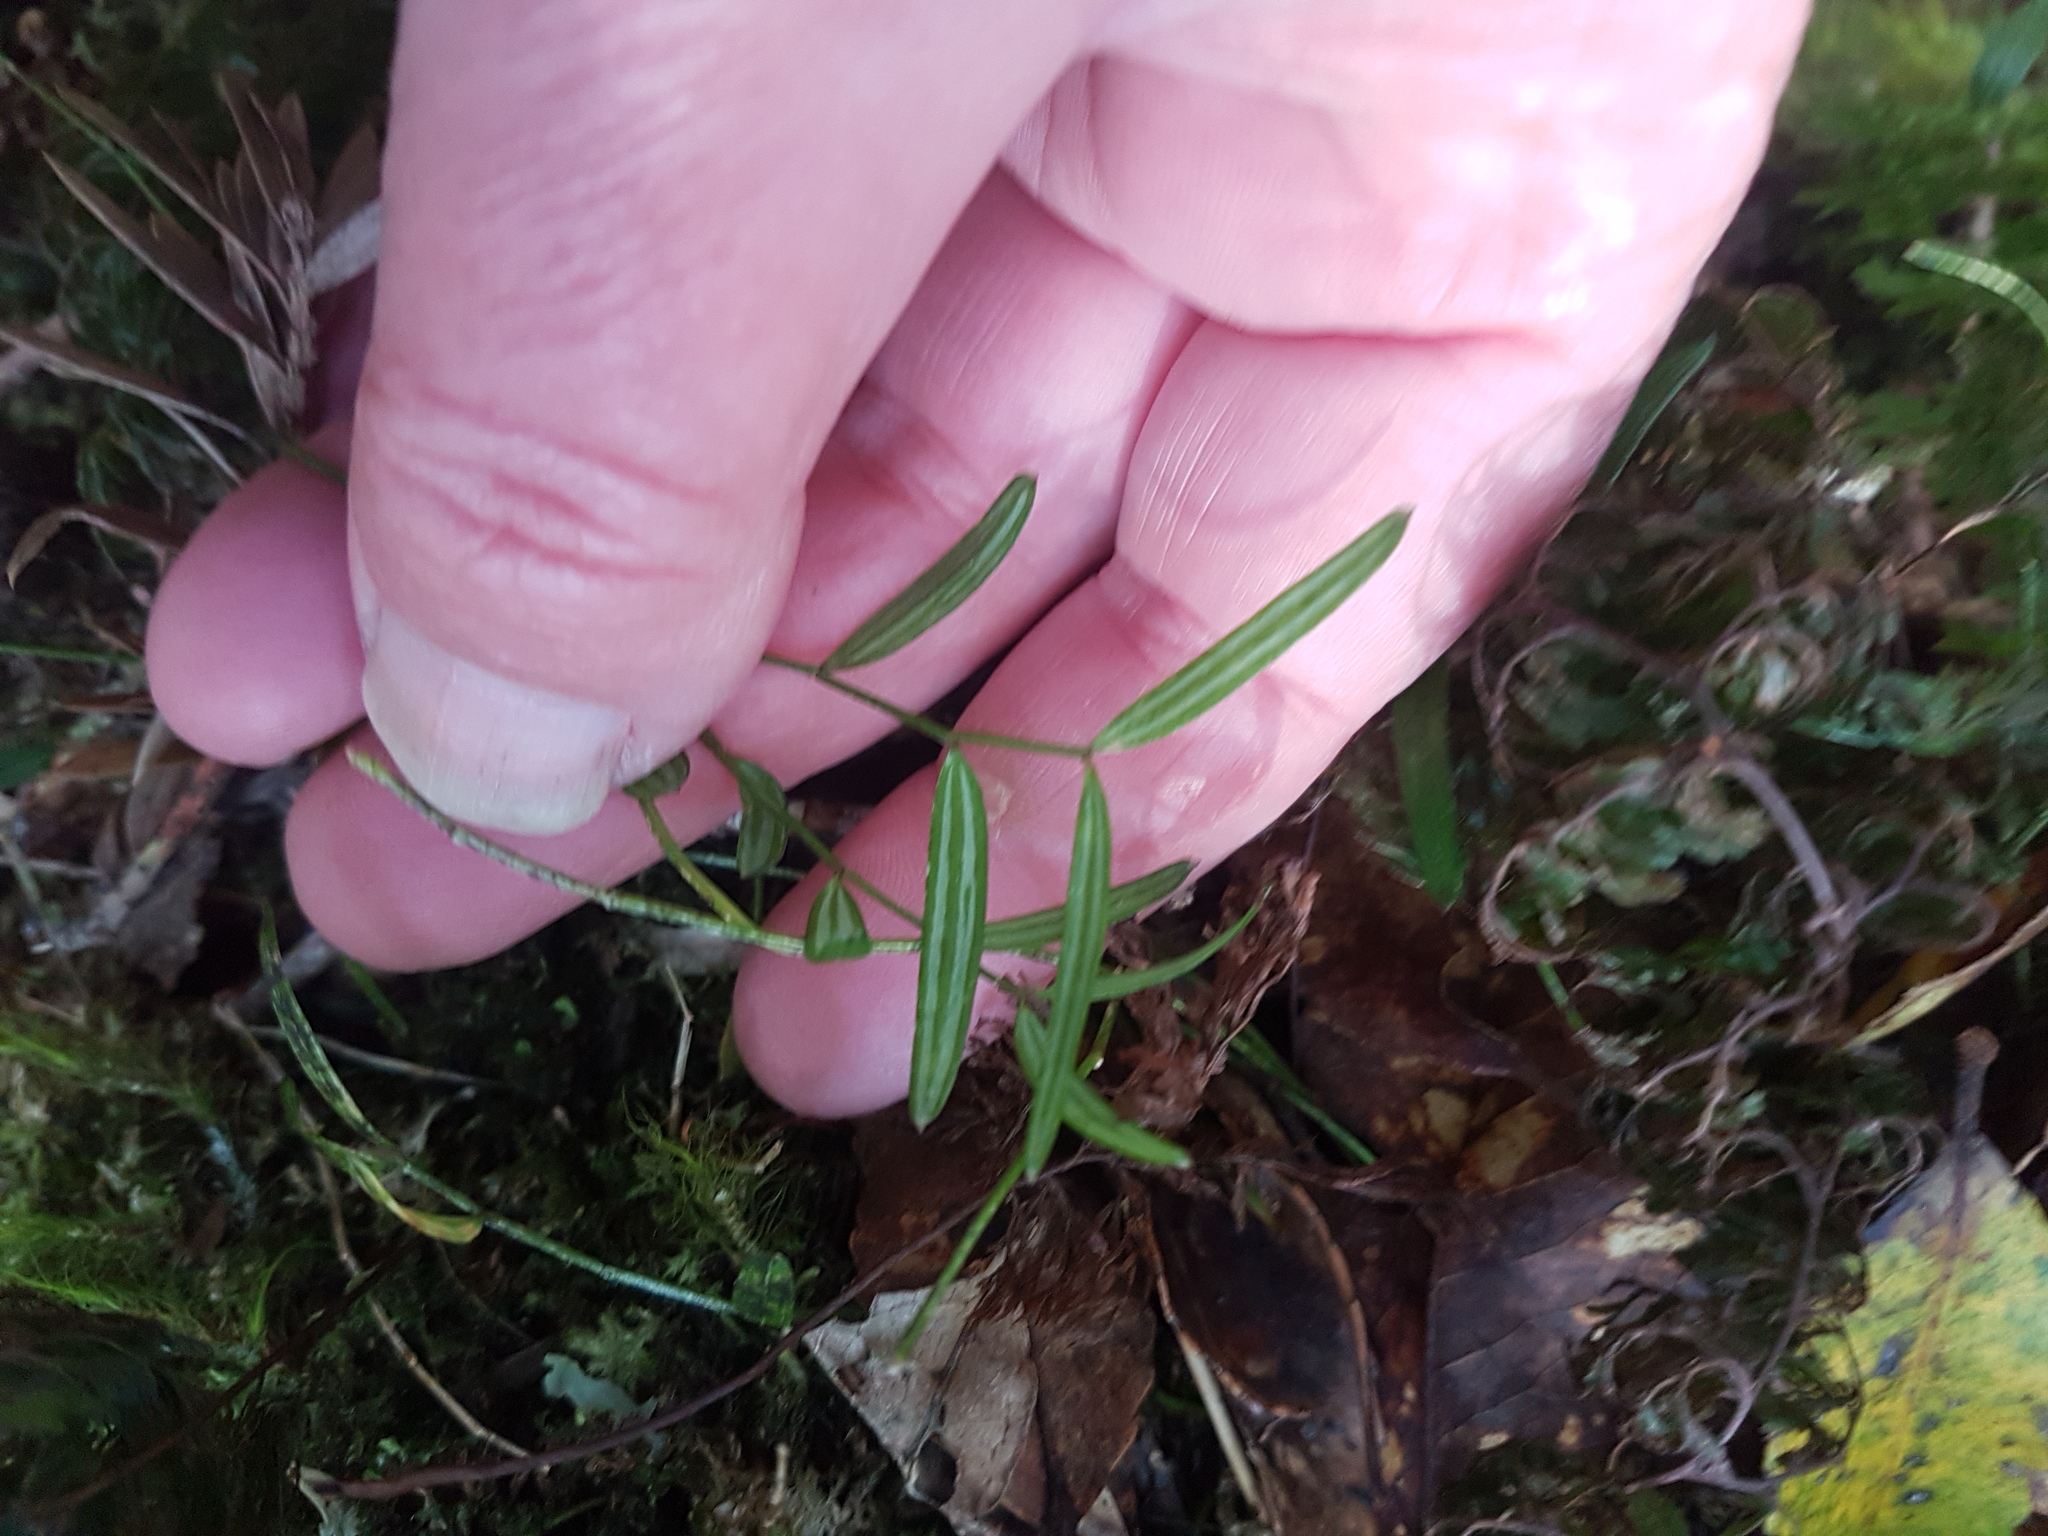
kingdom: Plantae
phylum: Tracheophyta
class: Liliopsida
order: Liliales
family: Alstroemeriaceae
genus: Luzuriaga
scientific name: Luzuriaga parviflora
